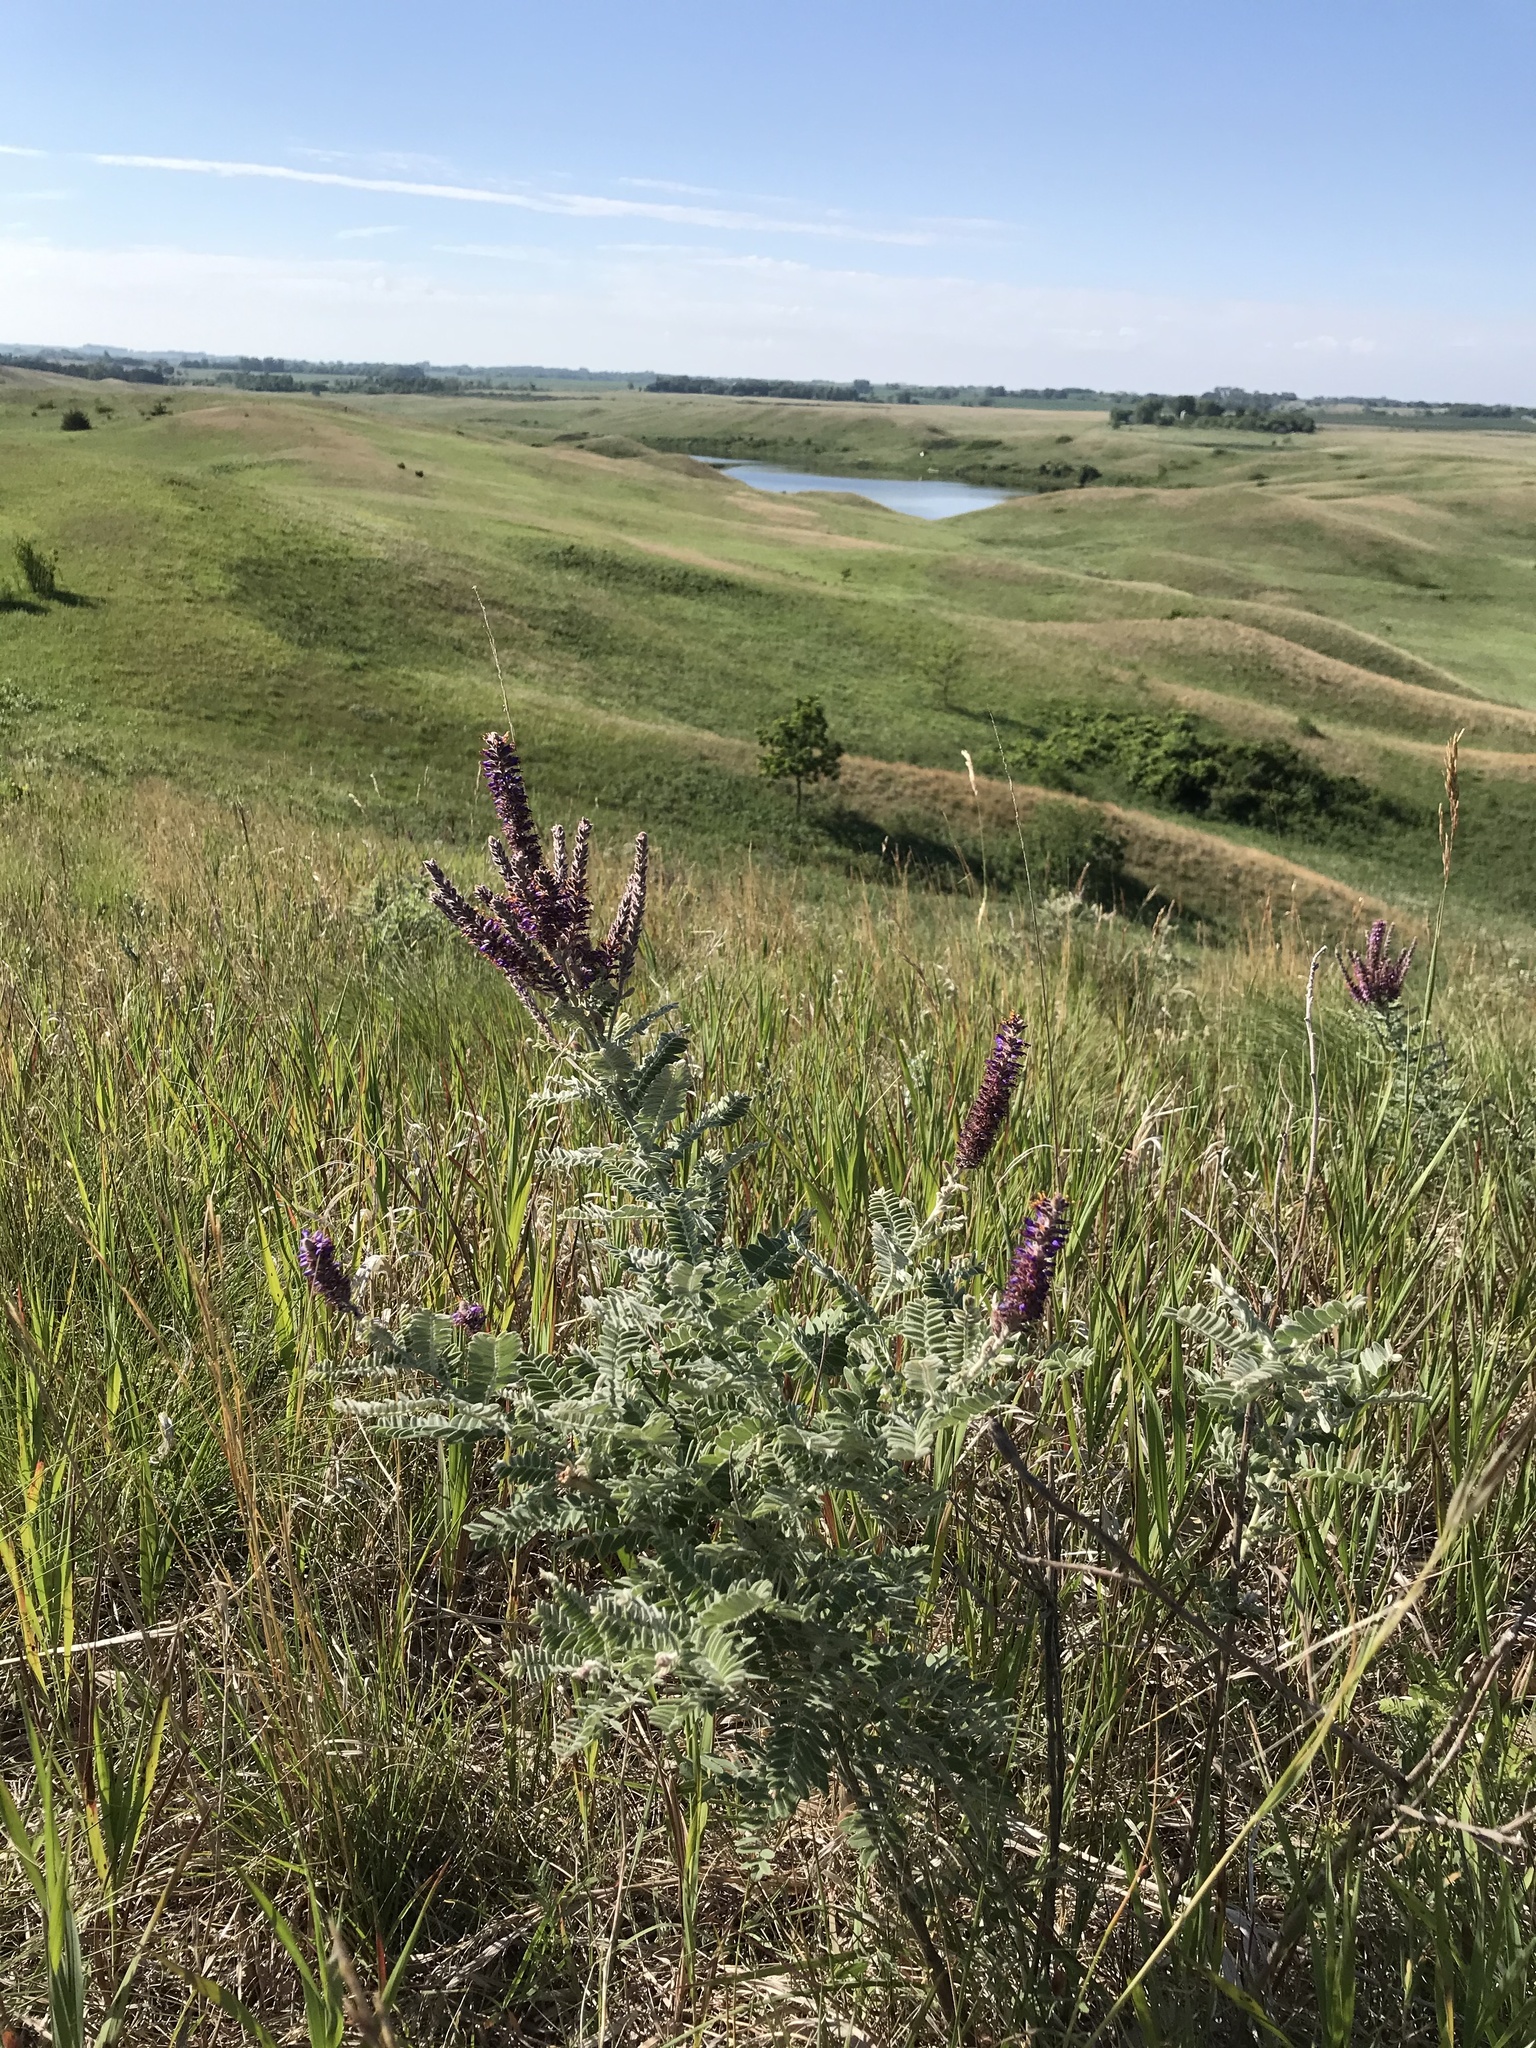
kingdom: Plantae
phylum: Tracheophyta
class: Magnoliopsida
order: Fabales
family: Fabaceae
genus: Amorpha
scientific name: Amorpha canescens
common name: Leadplant
